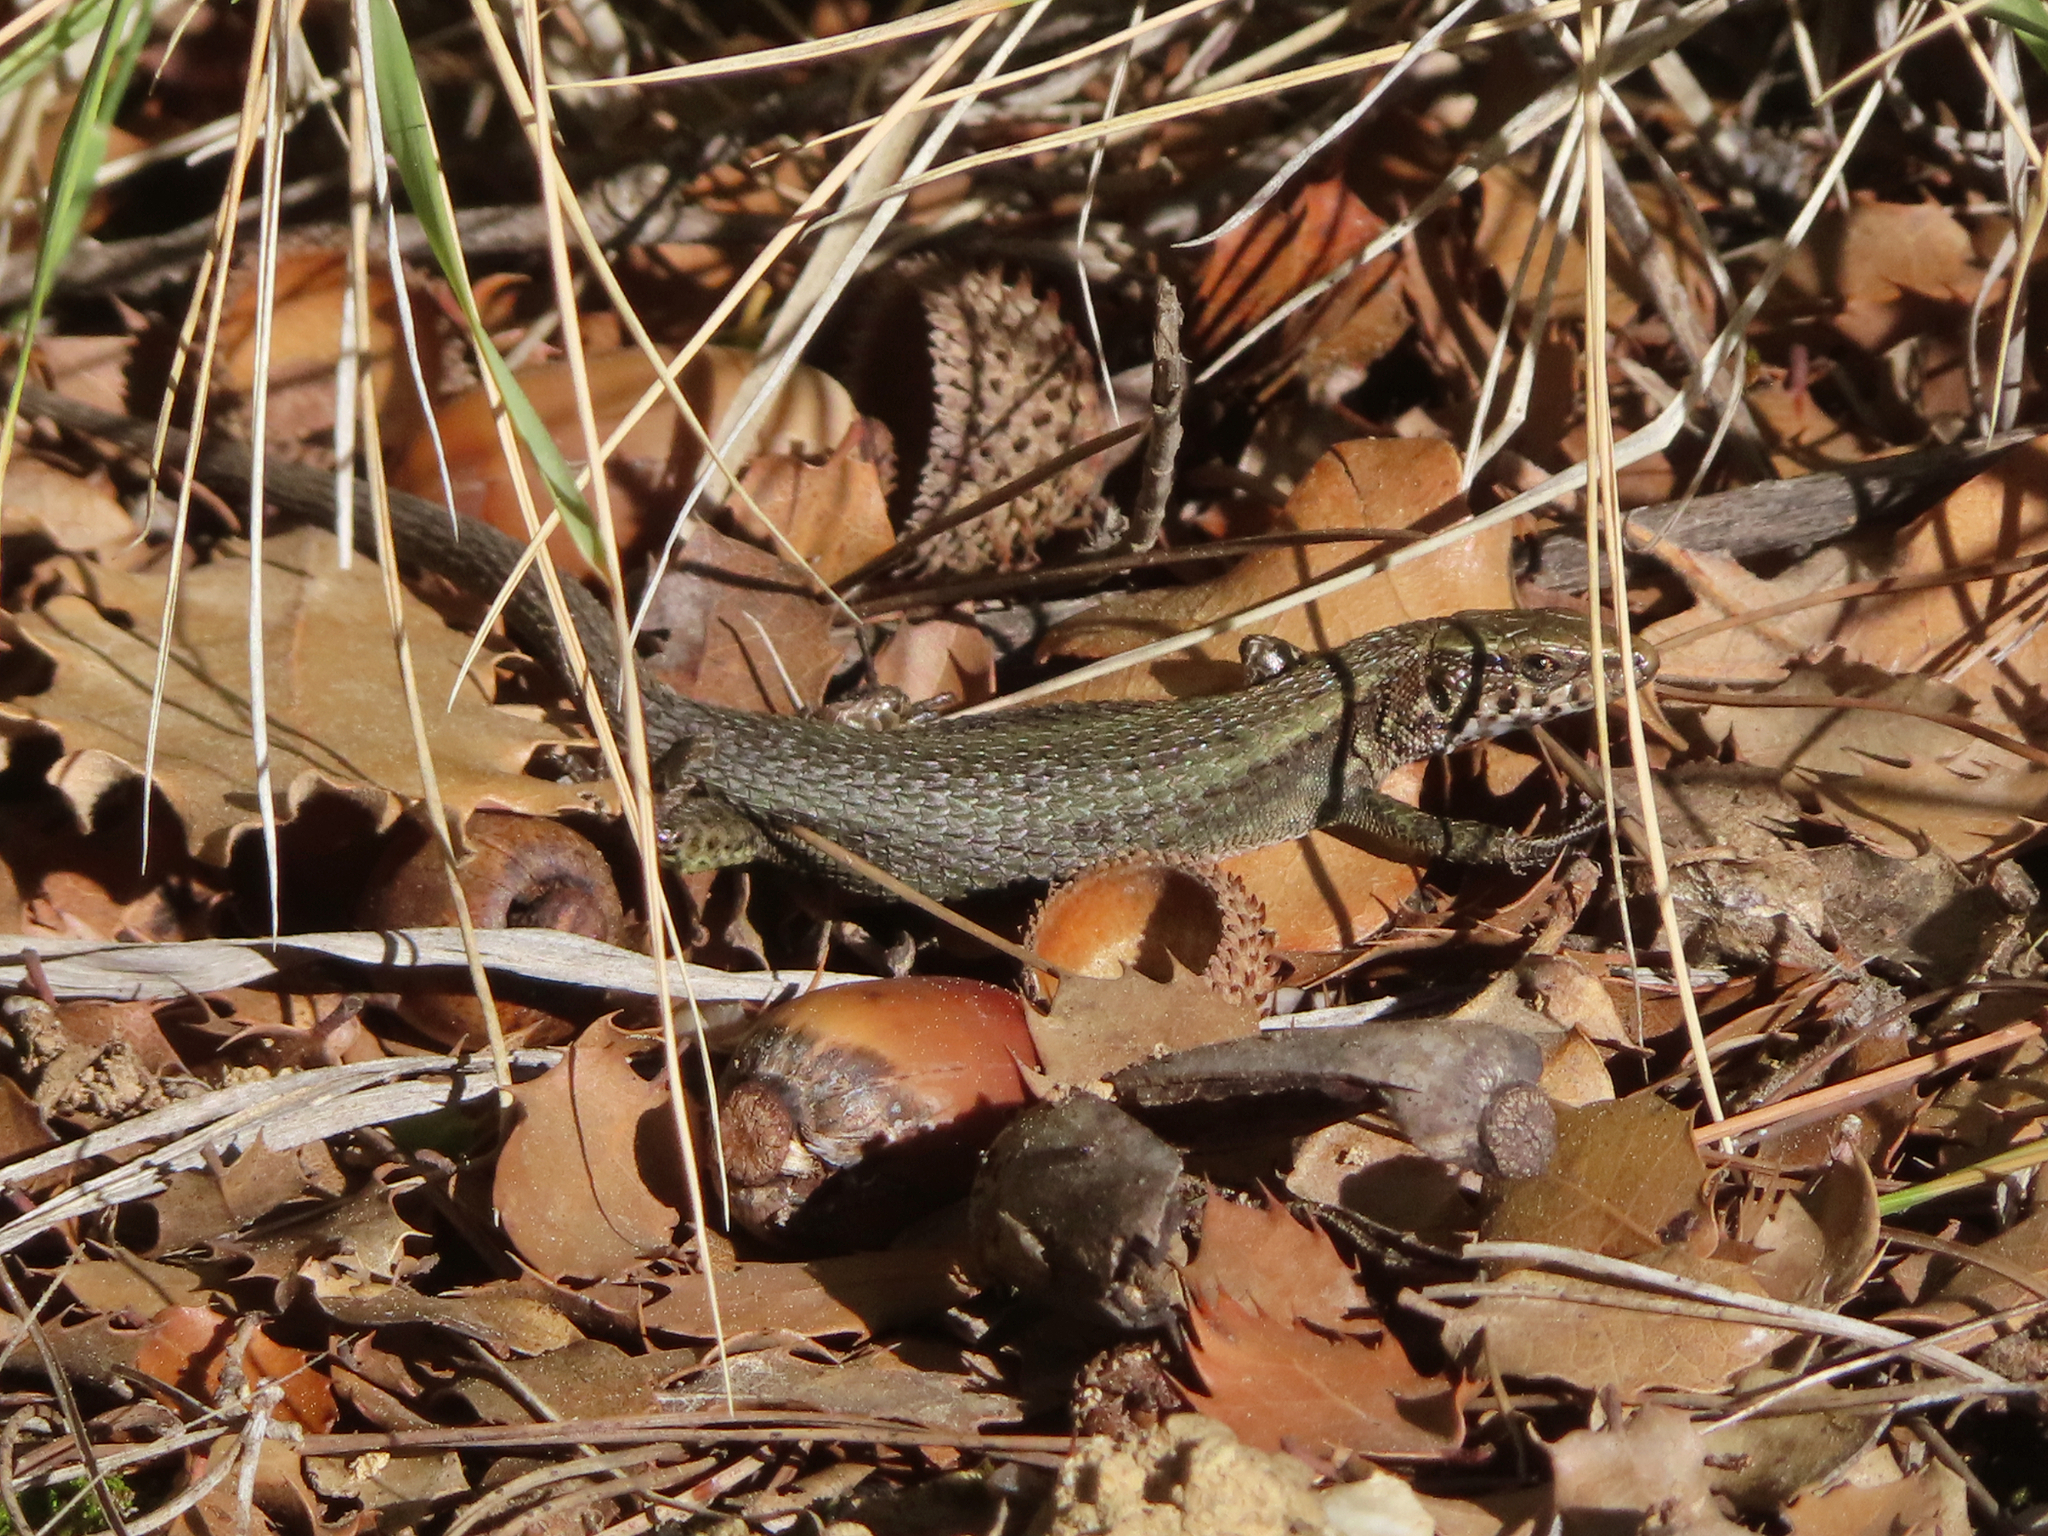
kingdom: Animalia
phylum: Chordata
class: Squamata
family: Lacertidae
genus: Algyroides
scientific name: Algyroides moreoticus
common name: Greek algyroides
